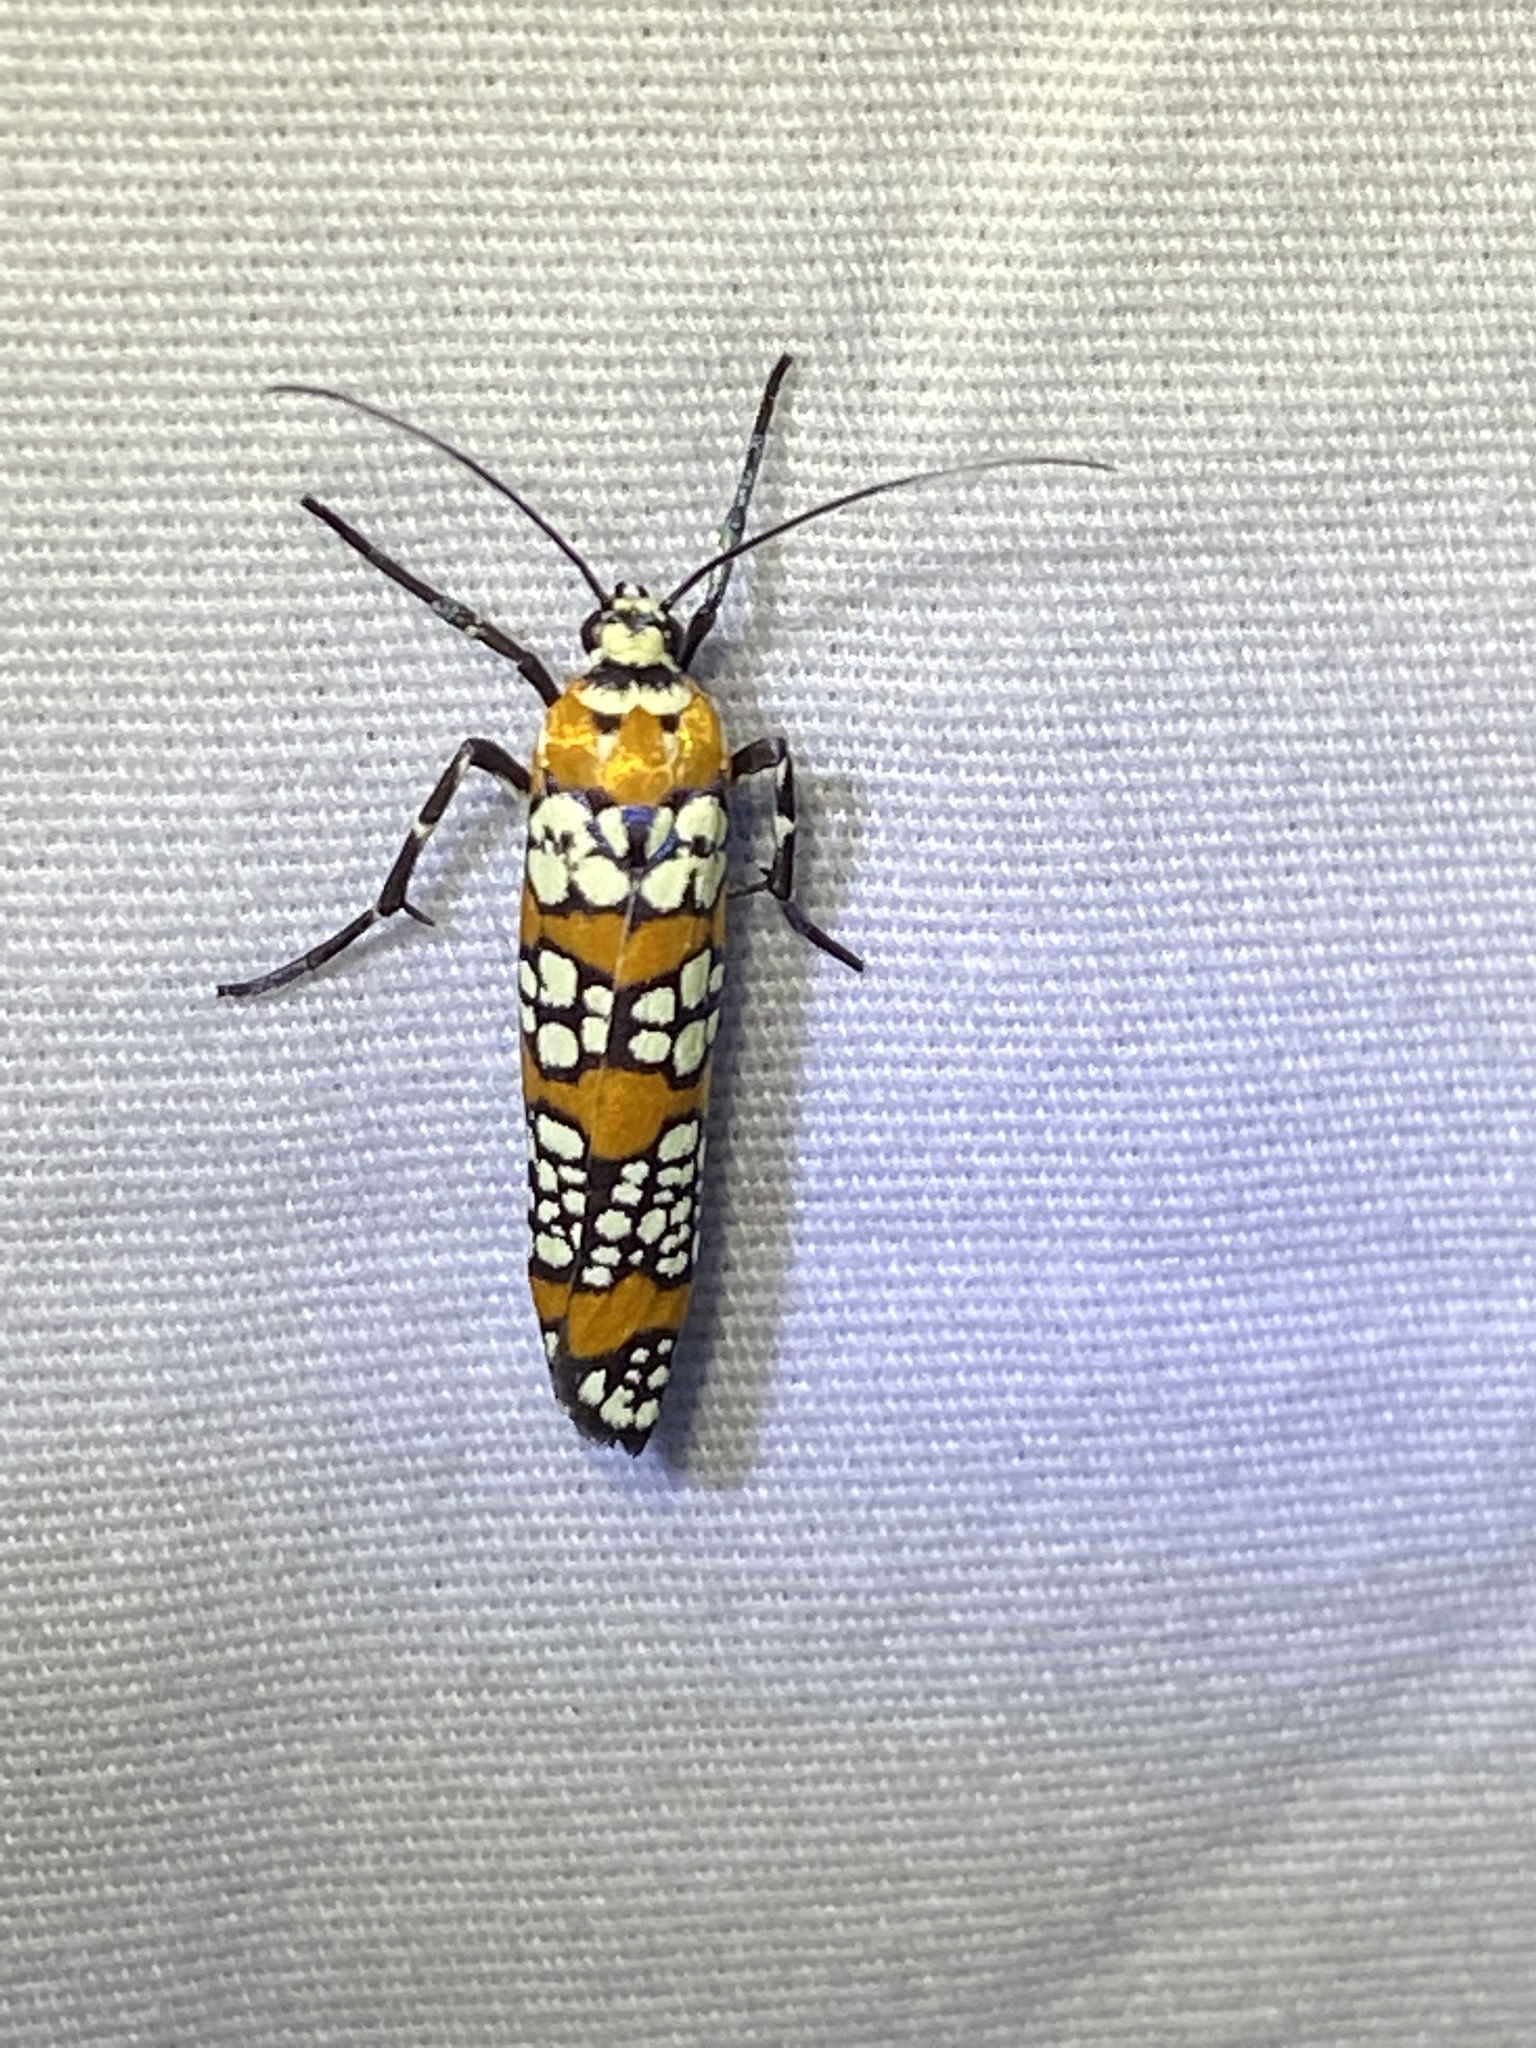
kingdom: Animalia
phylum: Arthropoda
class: Insecta
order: Lepidoptera
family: Attevidae
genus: Atteva
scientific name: Atteva punctella
